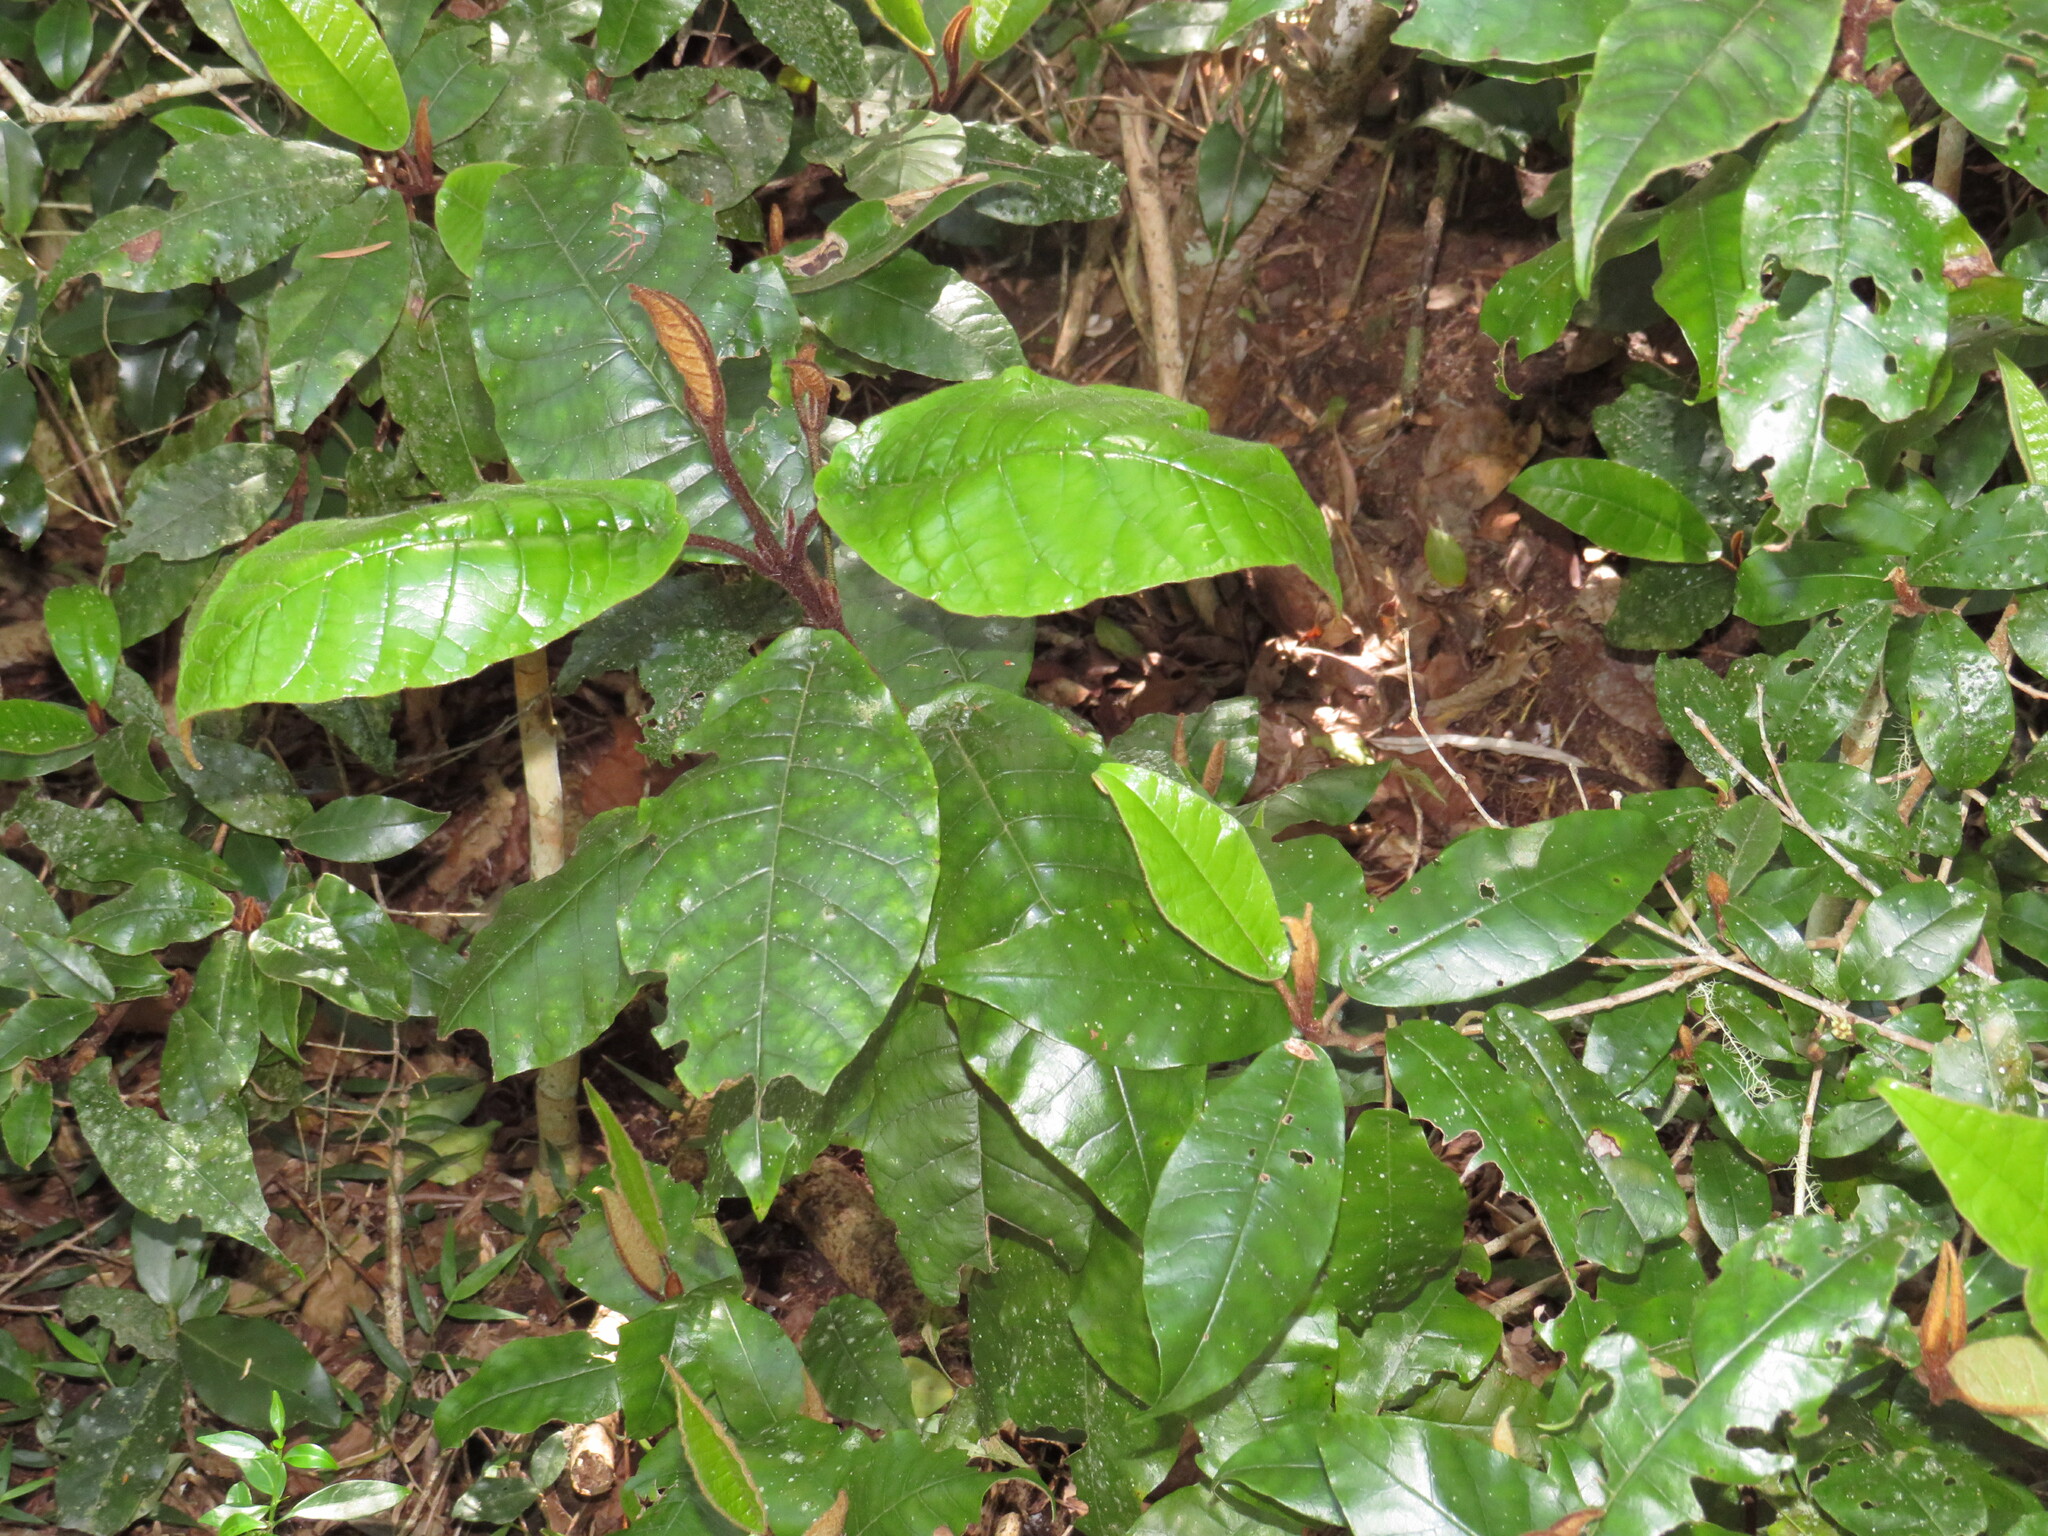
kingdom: Plantae
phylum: Tracheophyta
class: Magnoliopsida
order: Saxifragales
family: Hamamelidaceae
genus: Trichocladus
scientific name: Trichocladus crinitus
